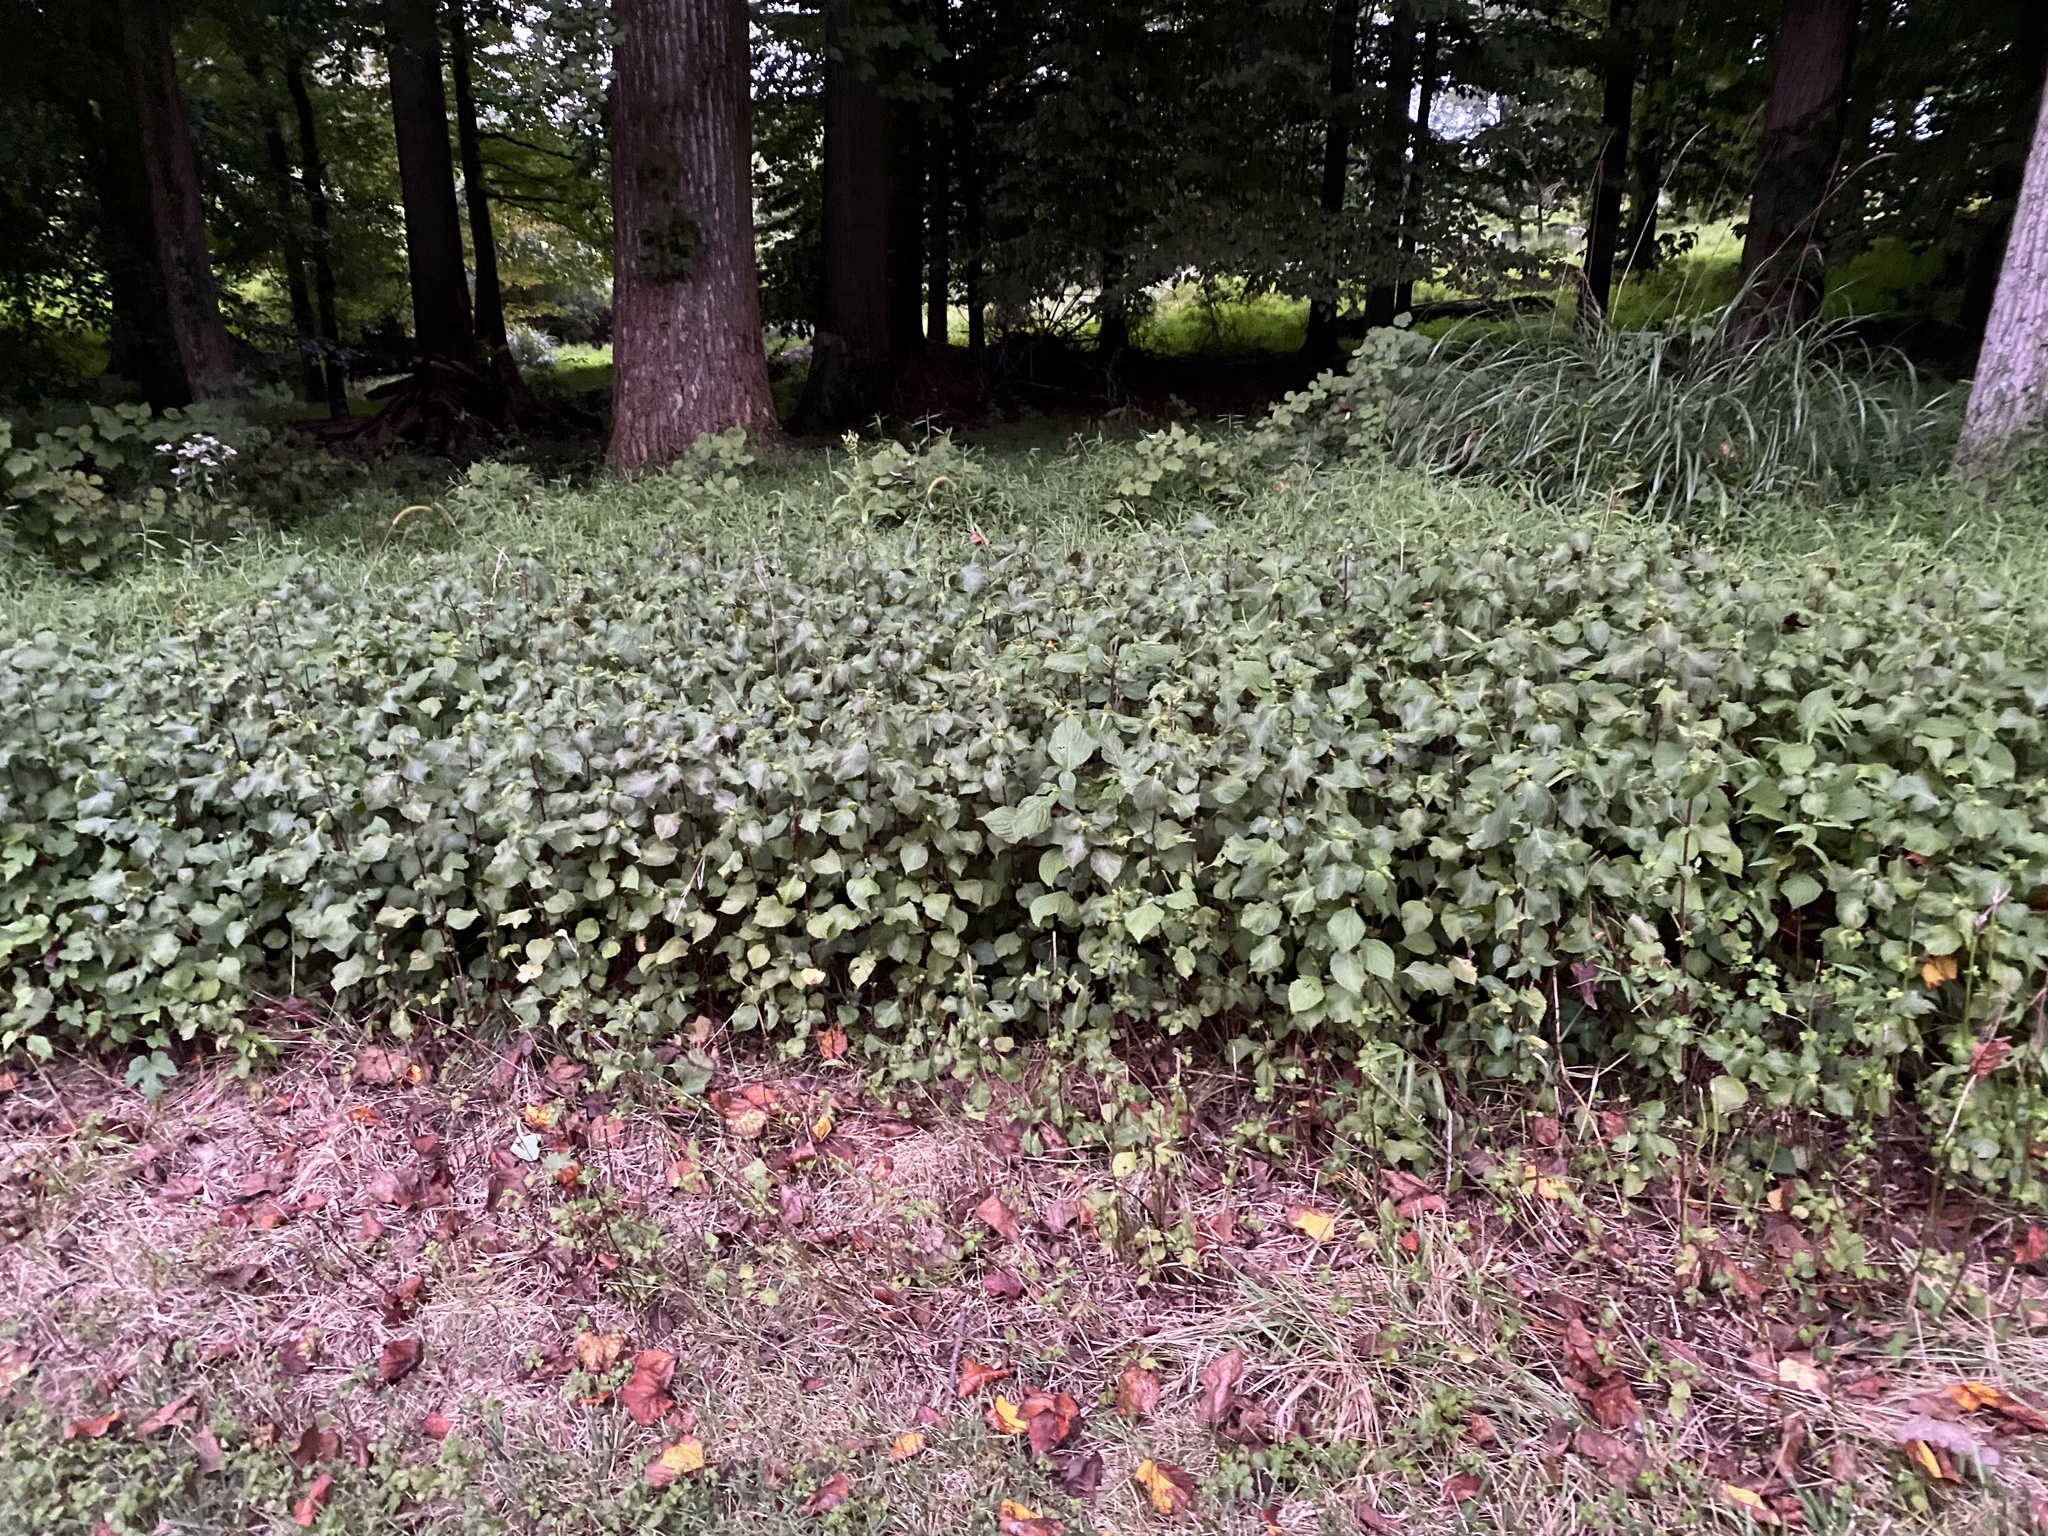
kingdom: Plantae
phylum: Tracheophyta
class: Magnoliopsida
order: Lamiales
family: Lamiaceae
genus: Perilla
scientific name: Perilla frutescens
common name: Perilla
